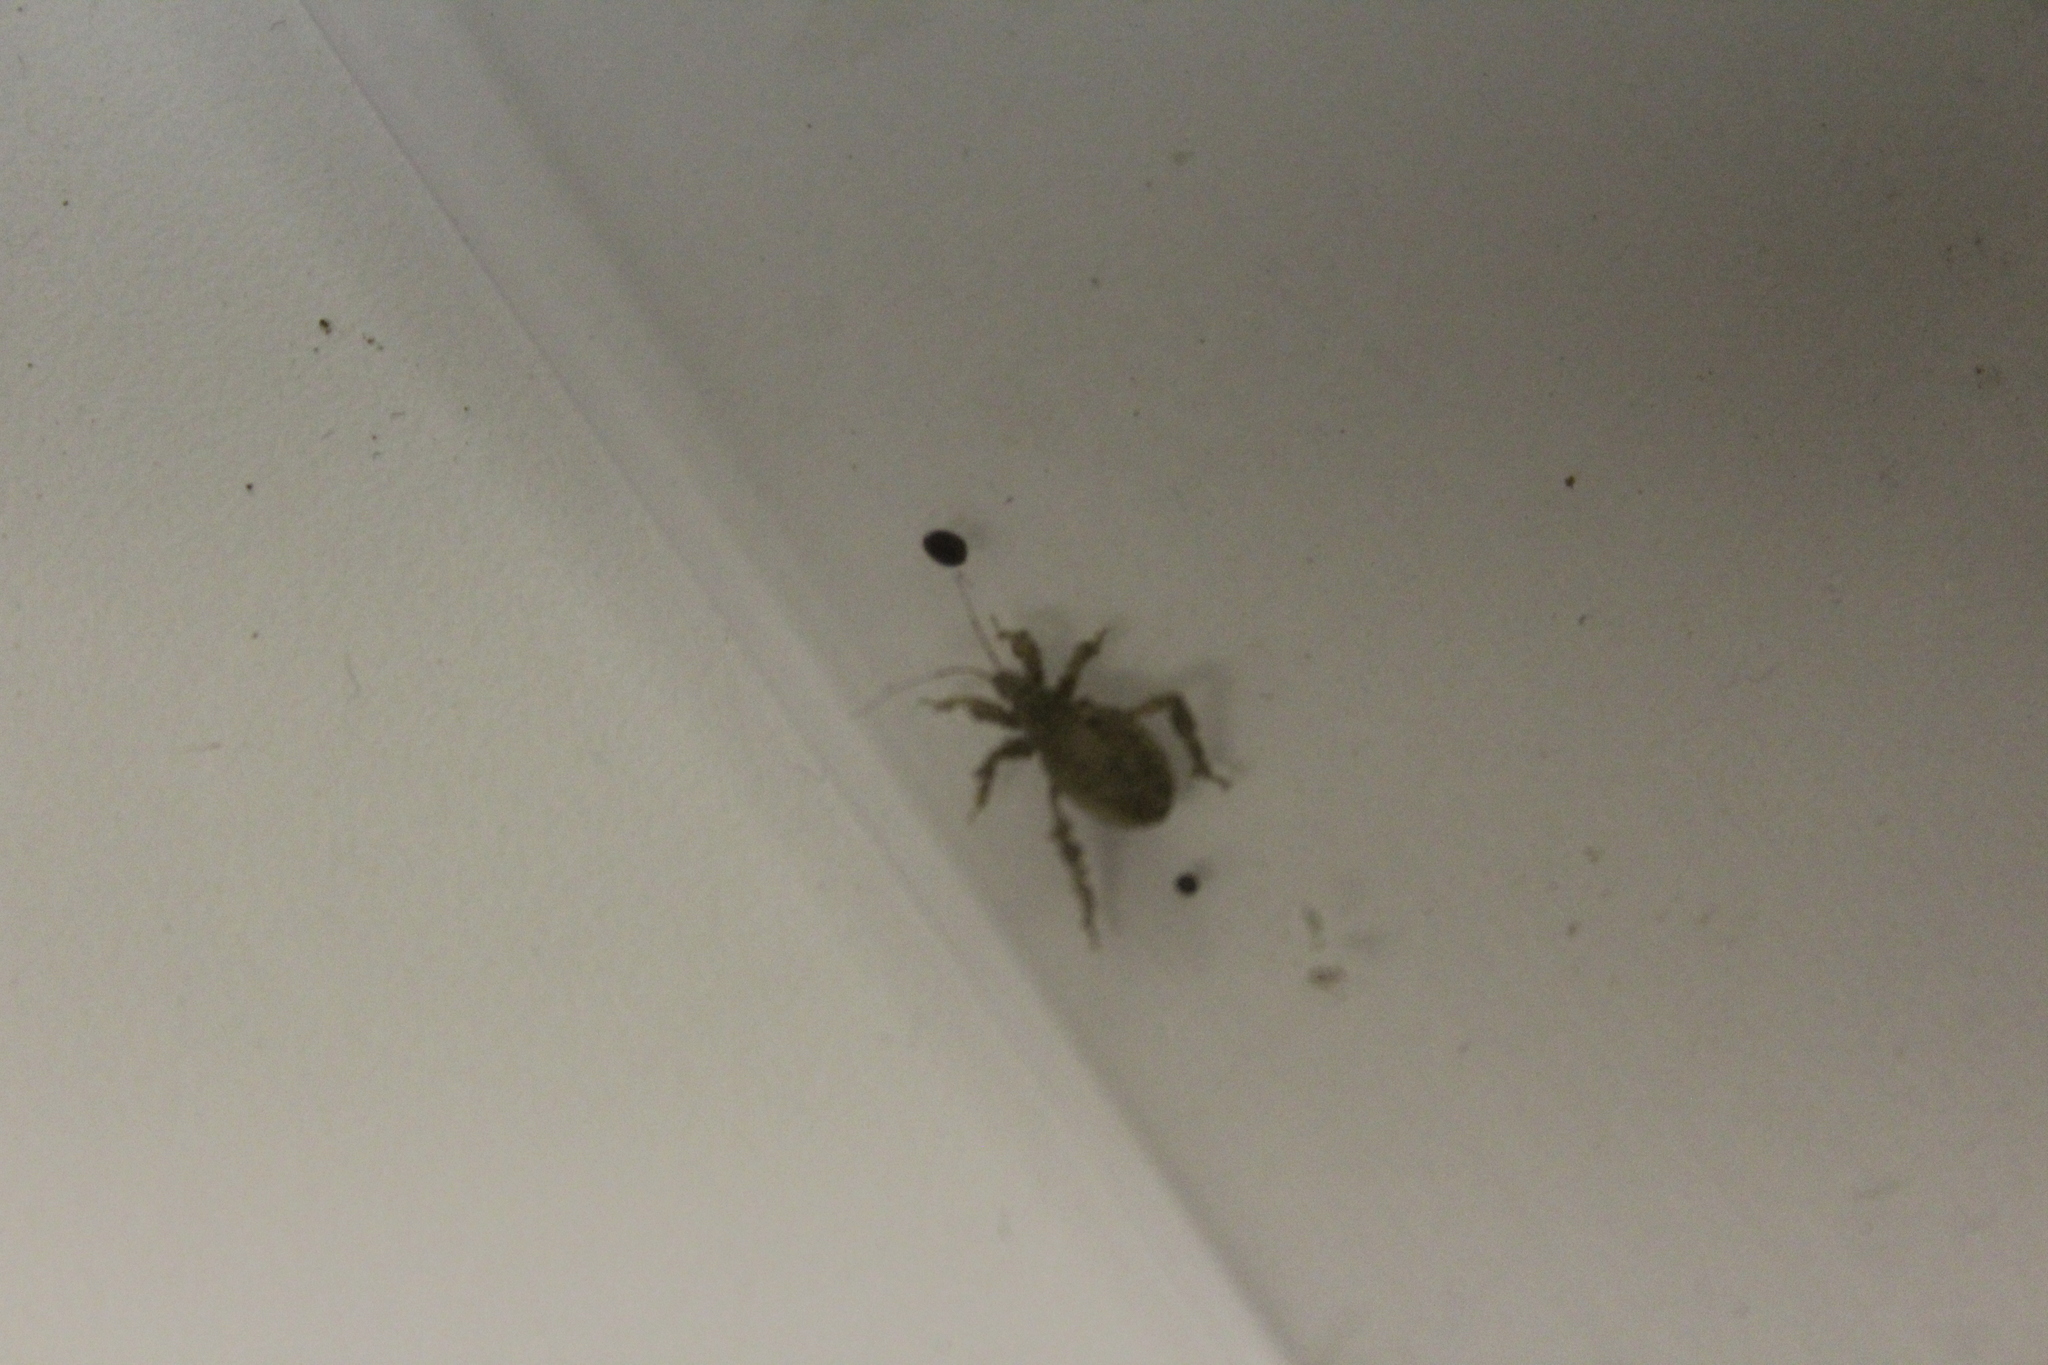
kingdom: Animalia
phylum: Arthropoda
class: Insecta
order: Hemiptera
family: Reduviidae
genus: Reduvius
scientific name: Reduvius personatus
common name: Masked hunter
